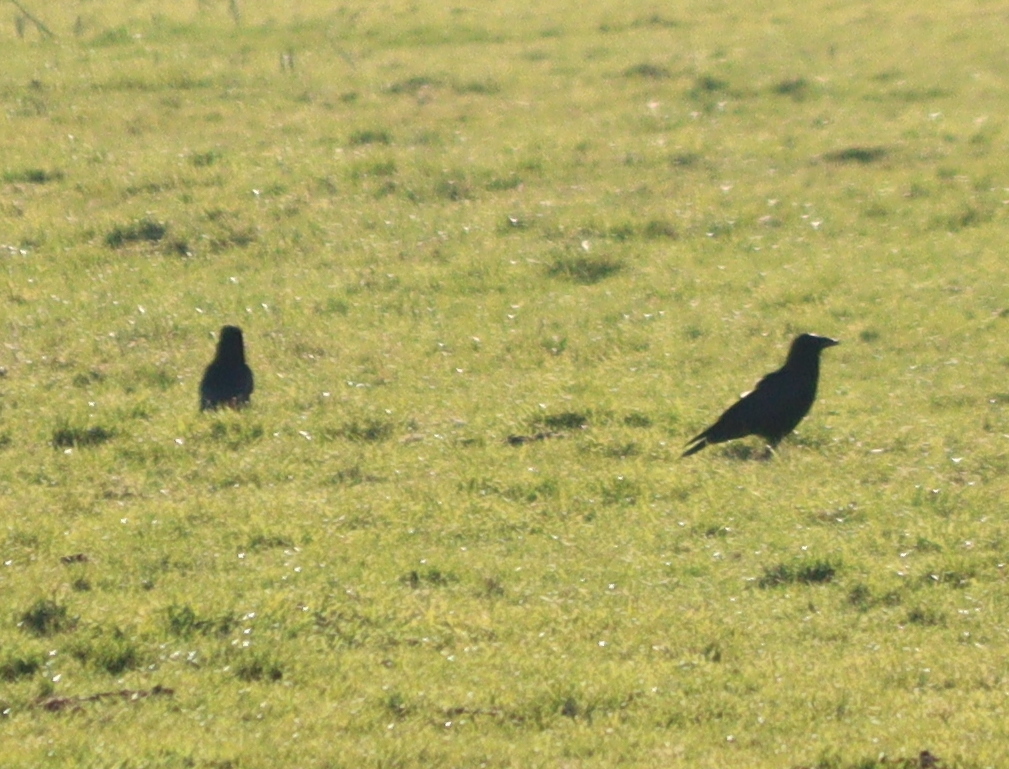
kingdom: Animalia
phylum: Chordata
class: Aves
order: Passeriformes
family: Corvidae
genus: Corvus
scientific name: Corvus corone
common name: Carrion crow
